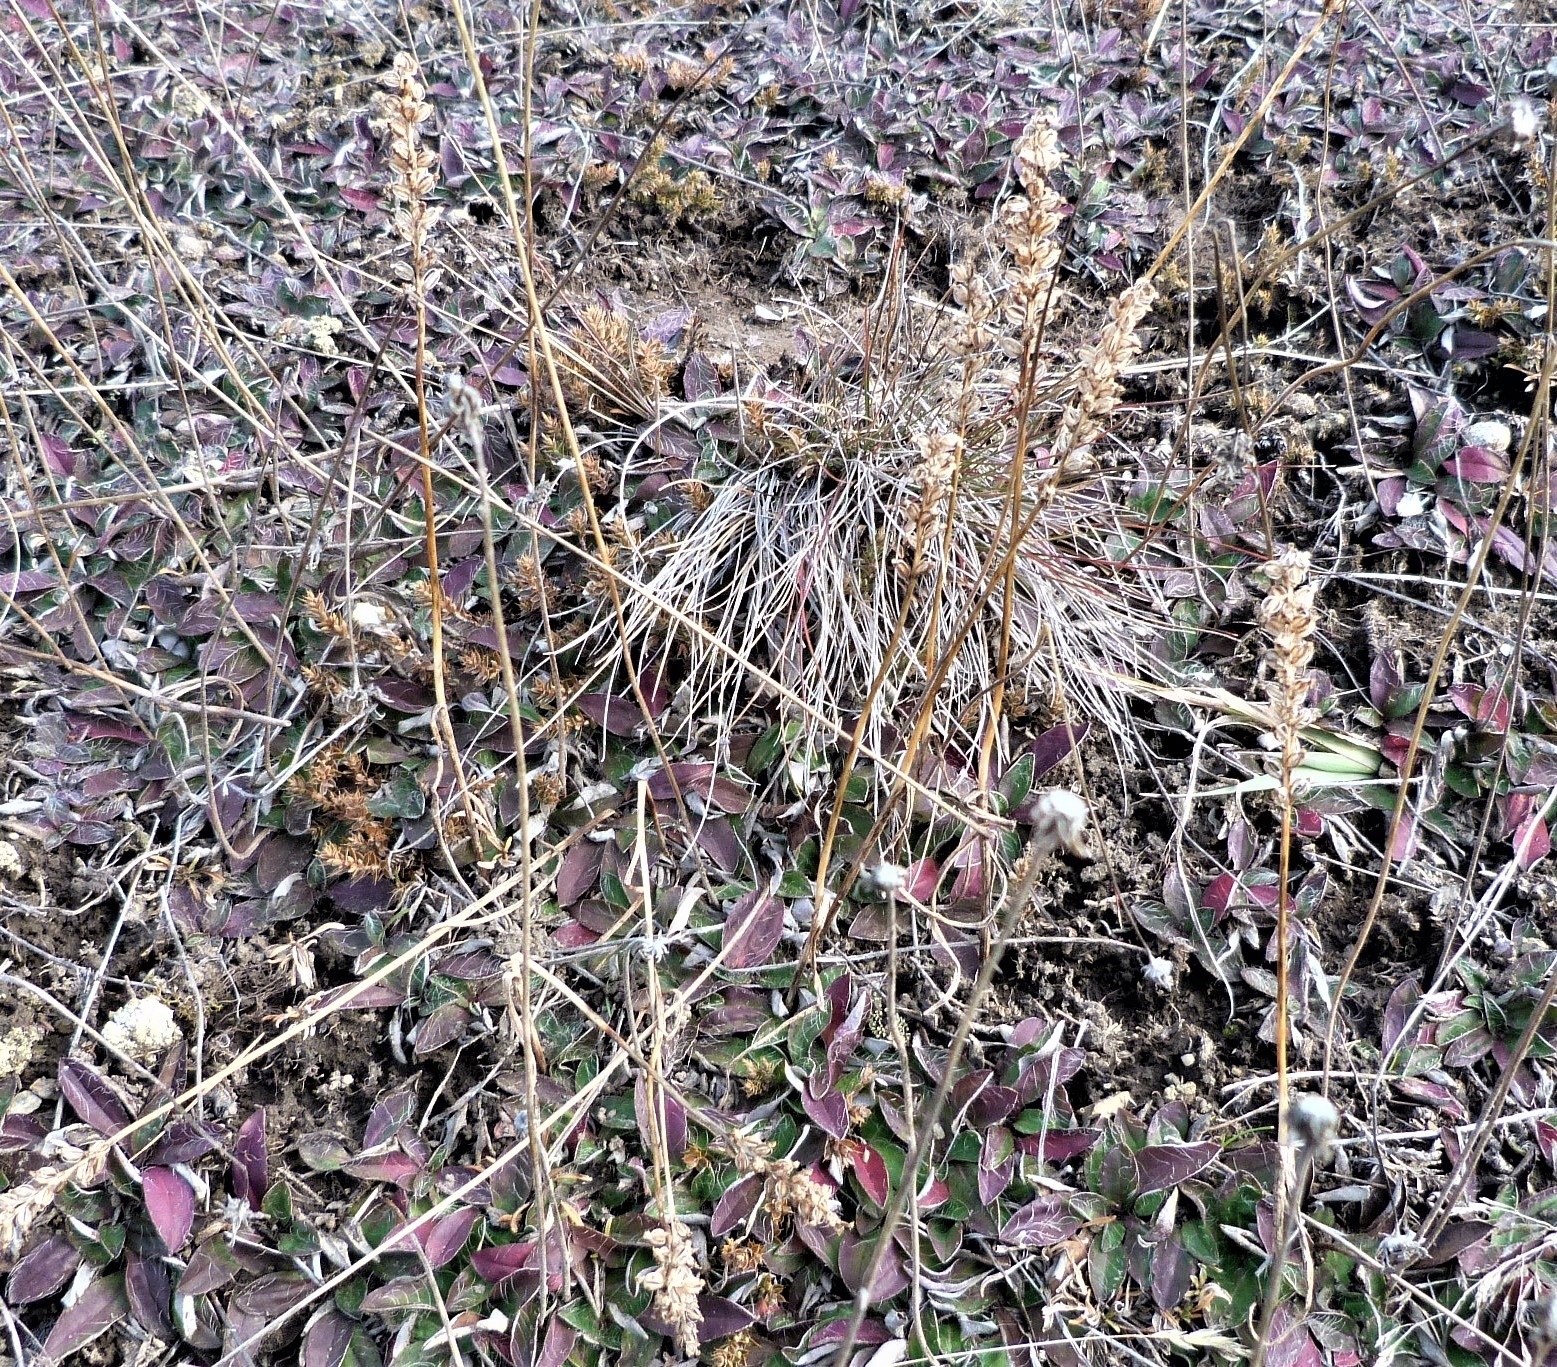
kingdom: Plantae
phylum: Tracheophyta
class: Liliopsida
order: Asparagales
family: Orchidaceae
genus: Microtis
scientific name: Microtis unifolia
